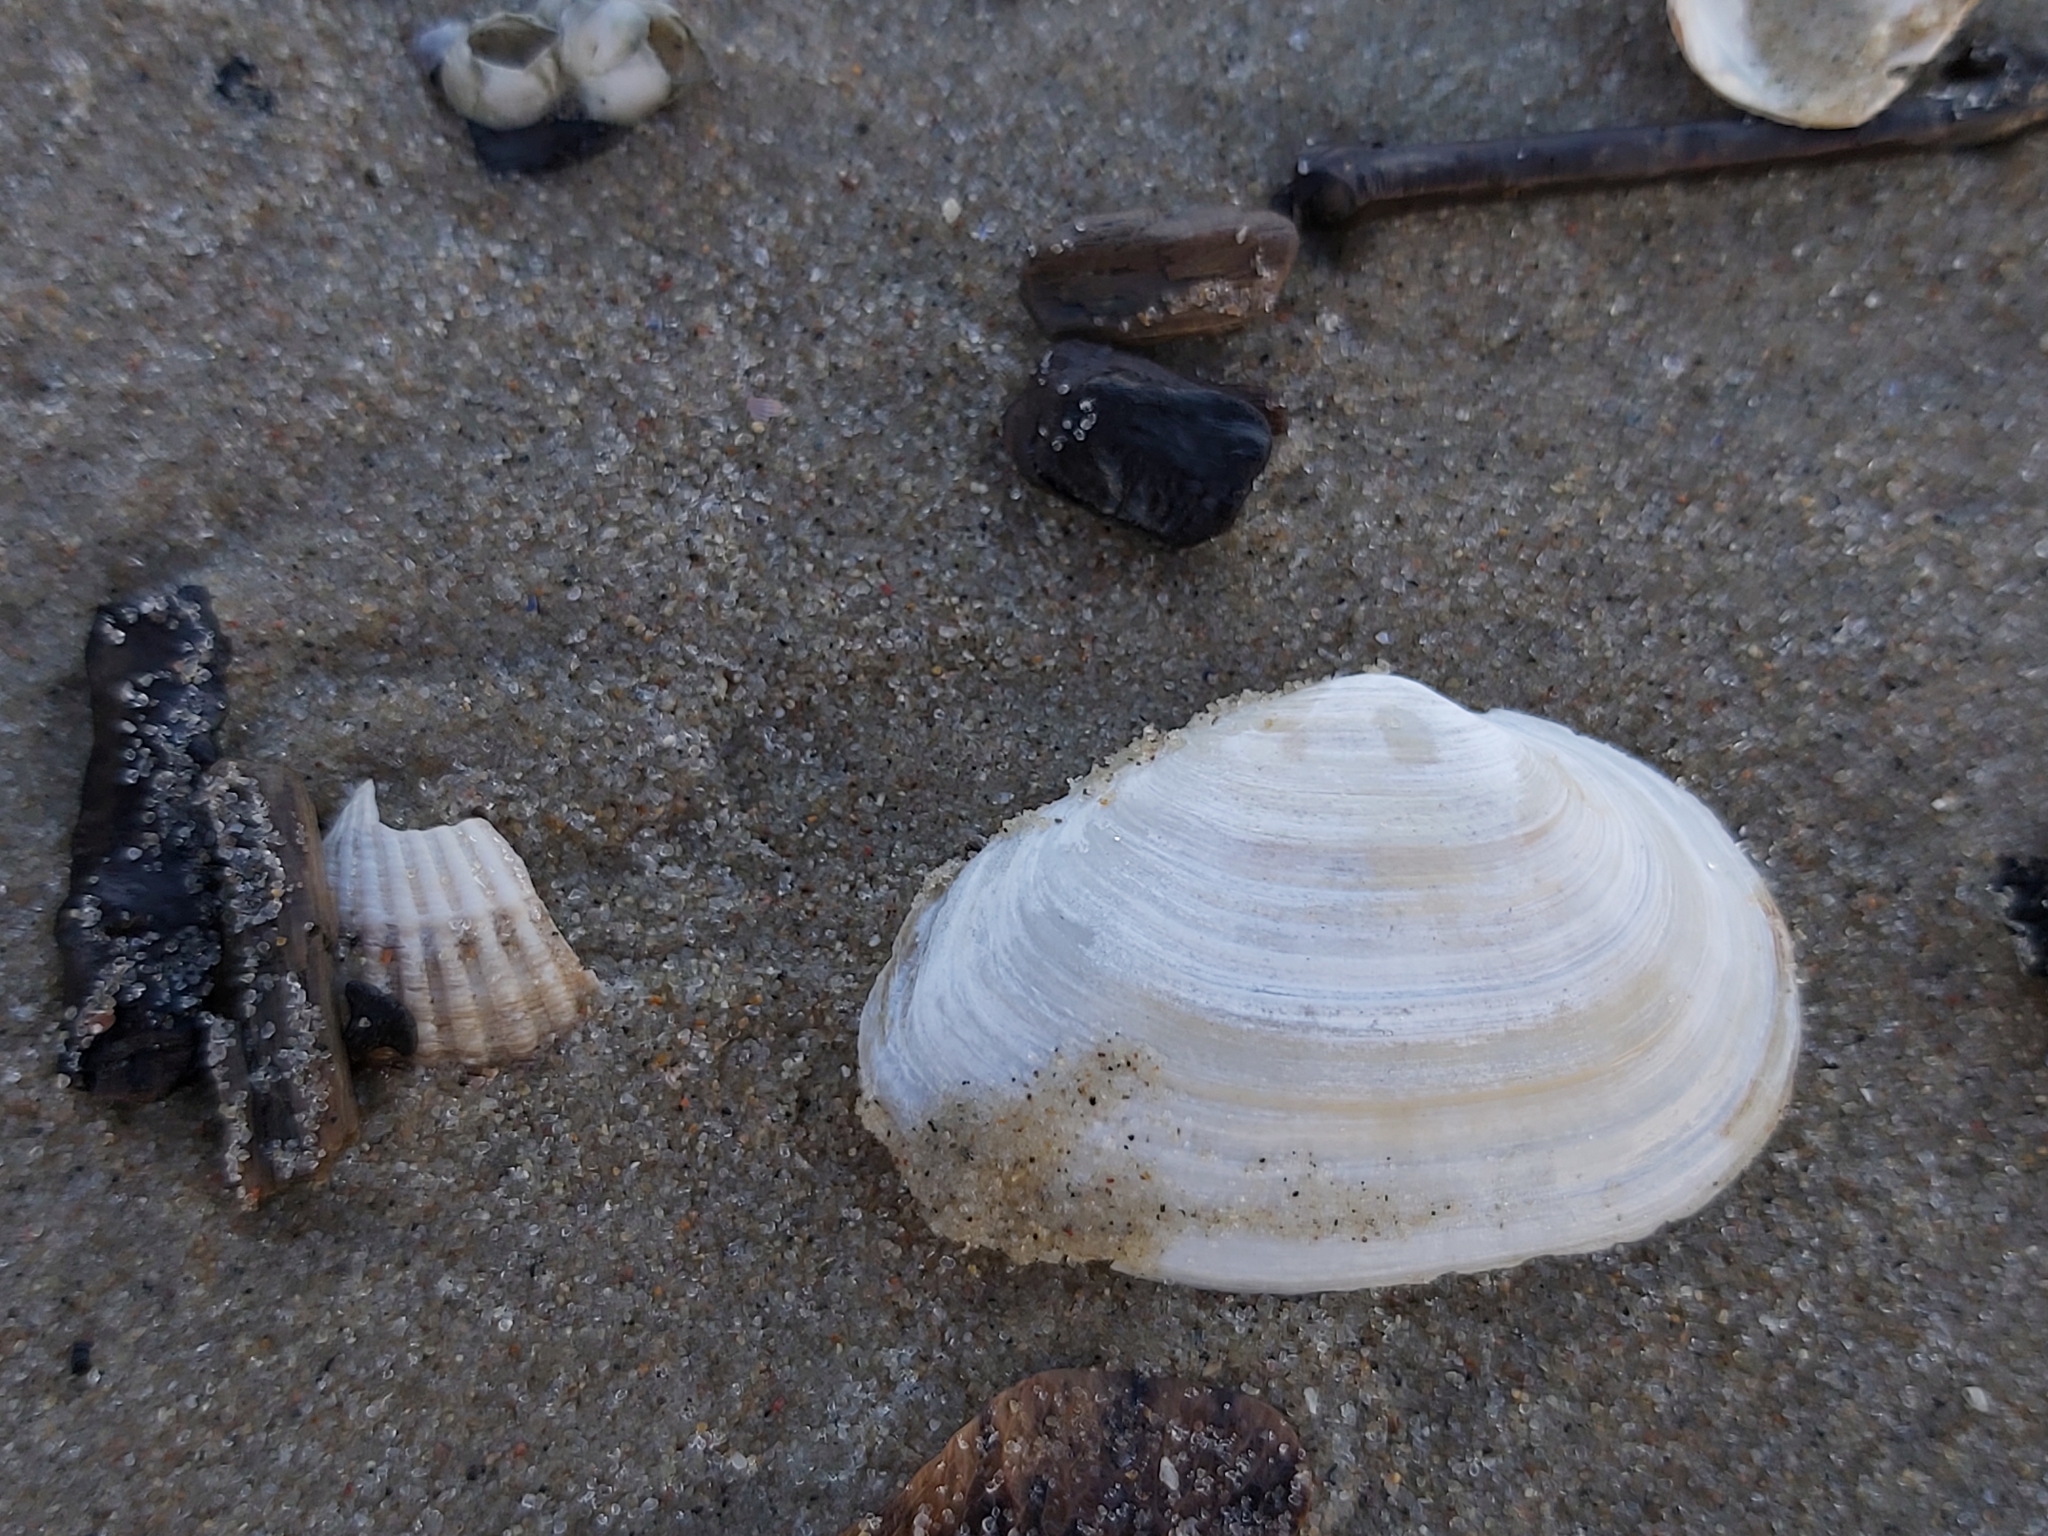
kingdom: Animalia
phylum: Mollusca
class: Bivalvia
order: Myida
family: Myidae
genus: Mya
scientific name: Mya arenaria
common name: Soft-shelled clam
